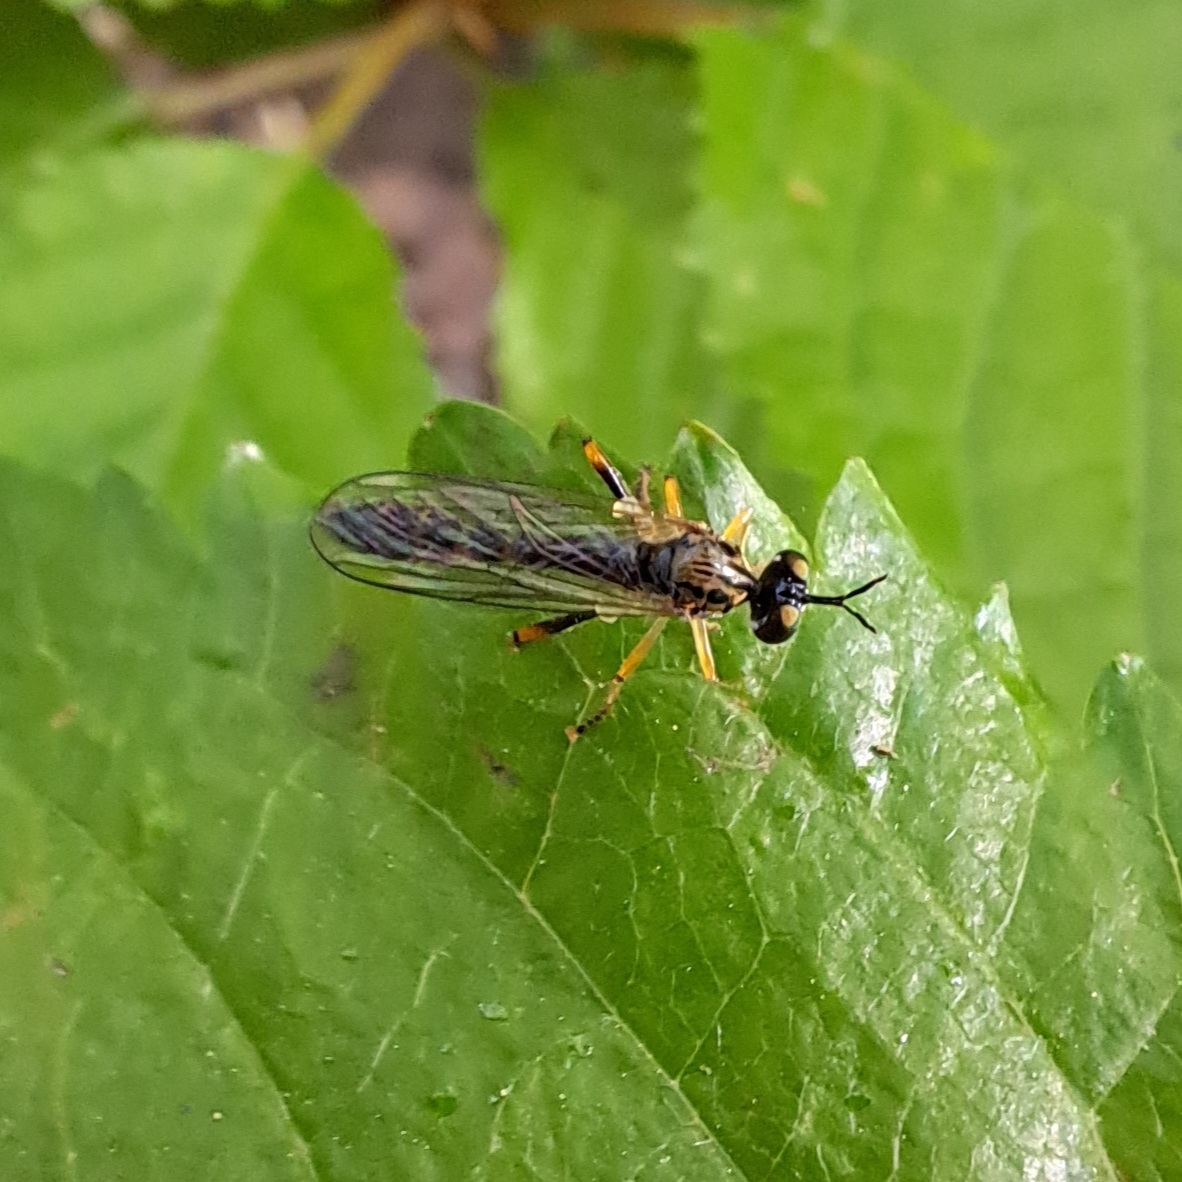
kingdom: Animalia
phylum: Arthropoda
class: Insecta
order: Diptera
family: Asilidae
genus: Dioctria
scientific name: Dioctria linearis
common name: Small yellow-legged robberfly
